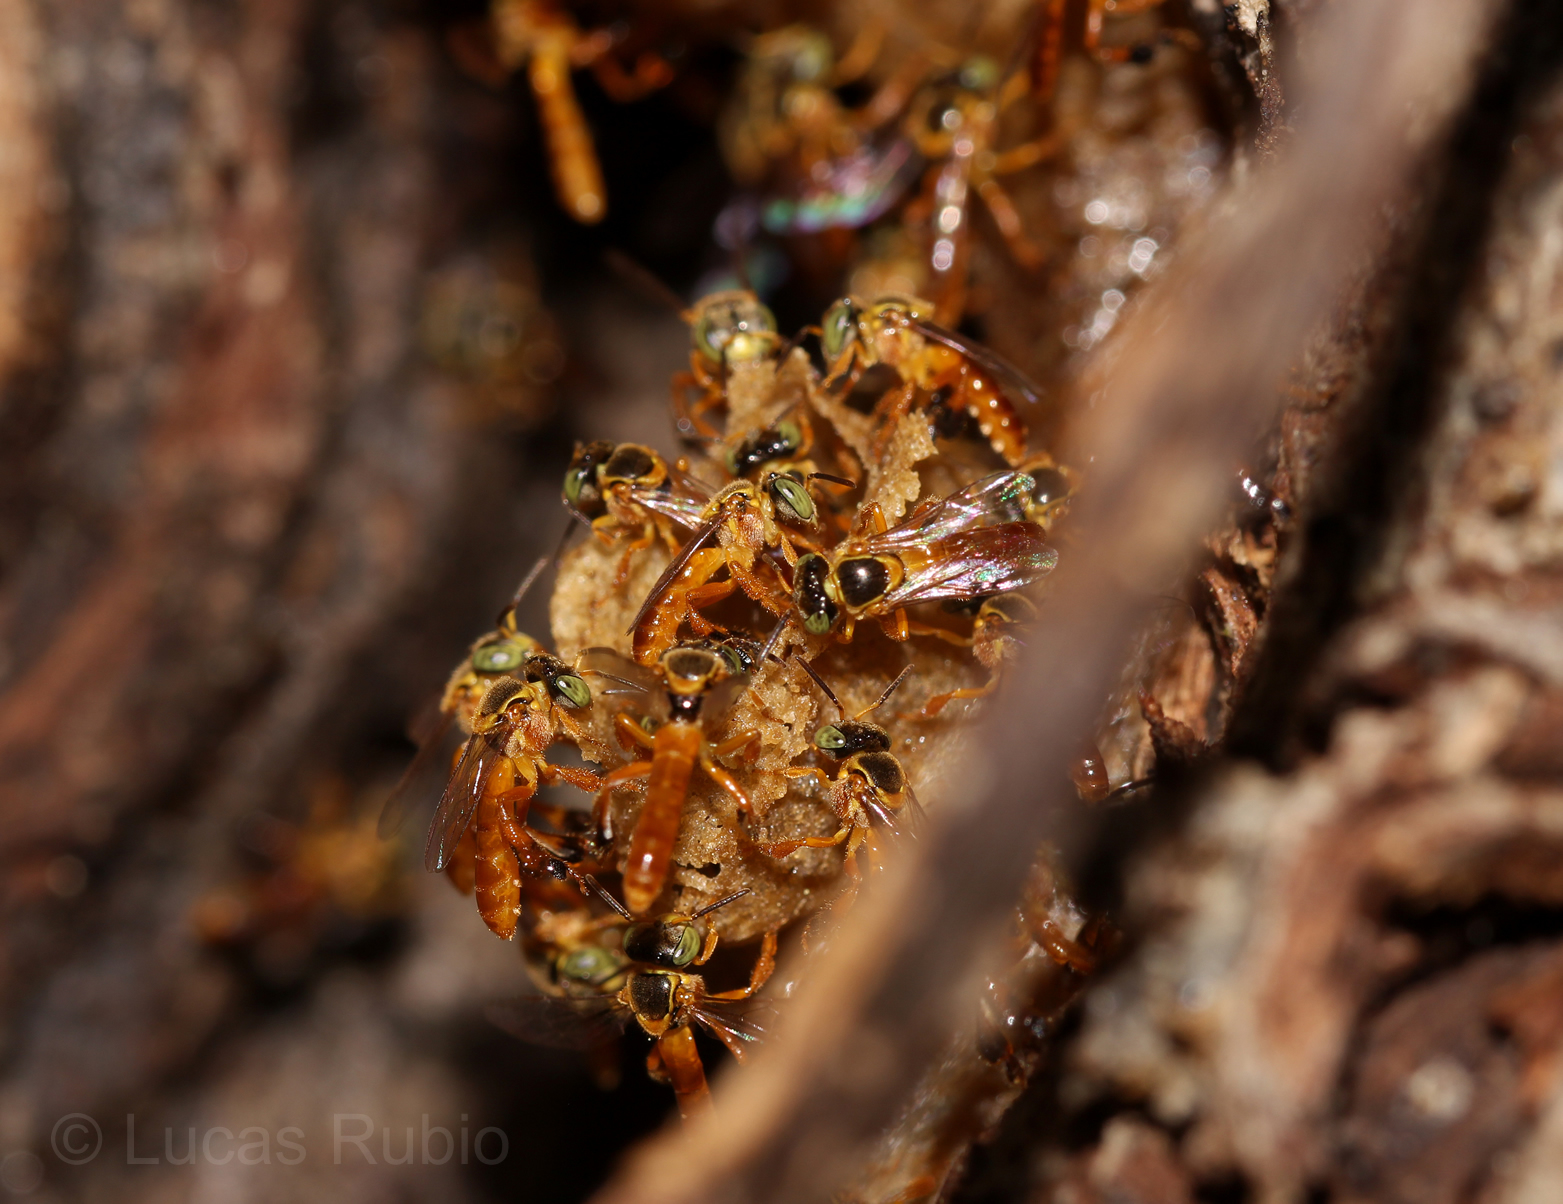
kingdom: Animalia
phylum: Arthropoda
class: Insecta
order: Hymenoptera
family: Apidae
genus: Tetragonisca
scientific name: Tetragonisca fiebrigi
